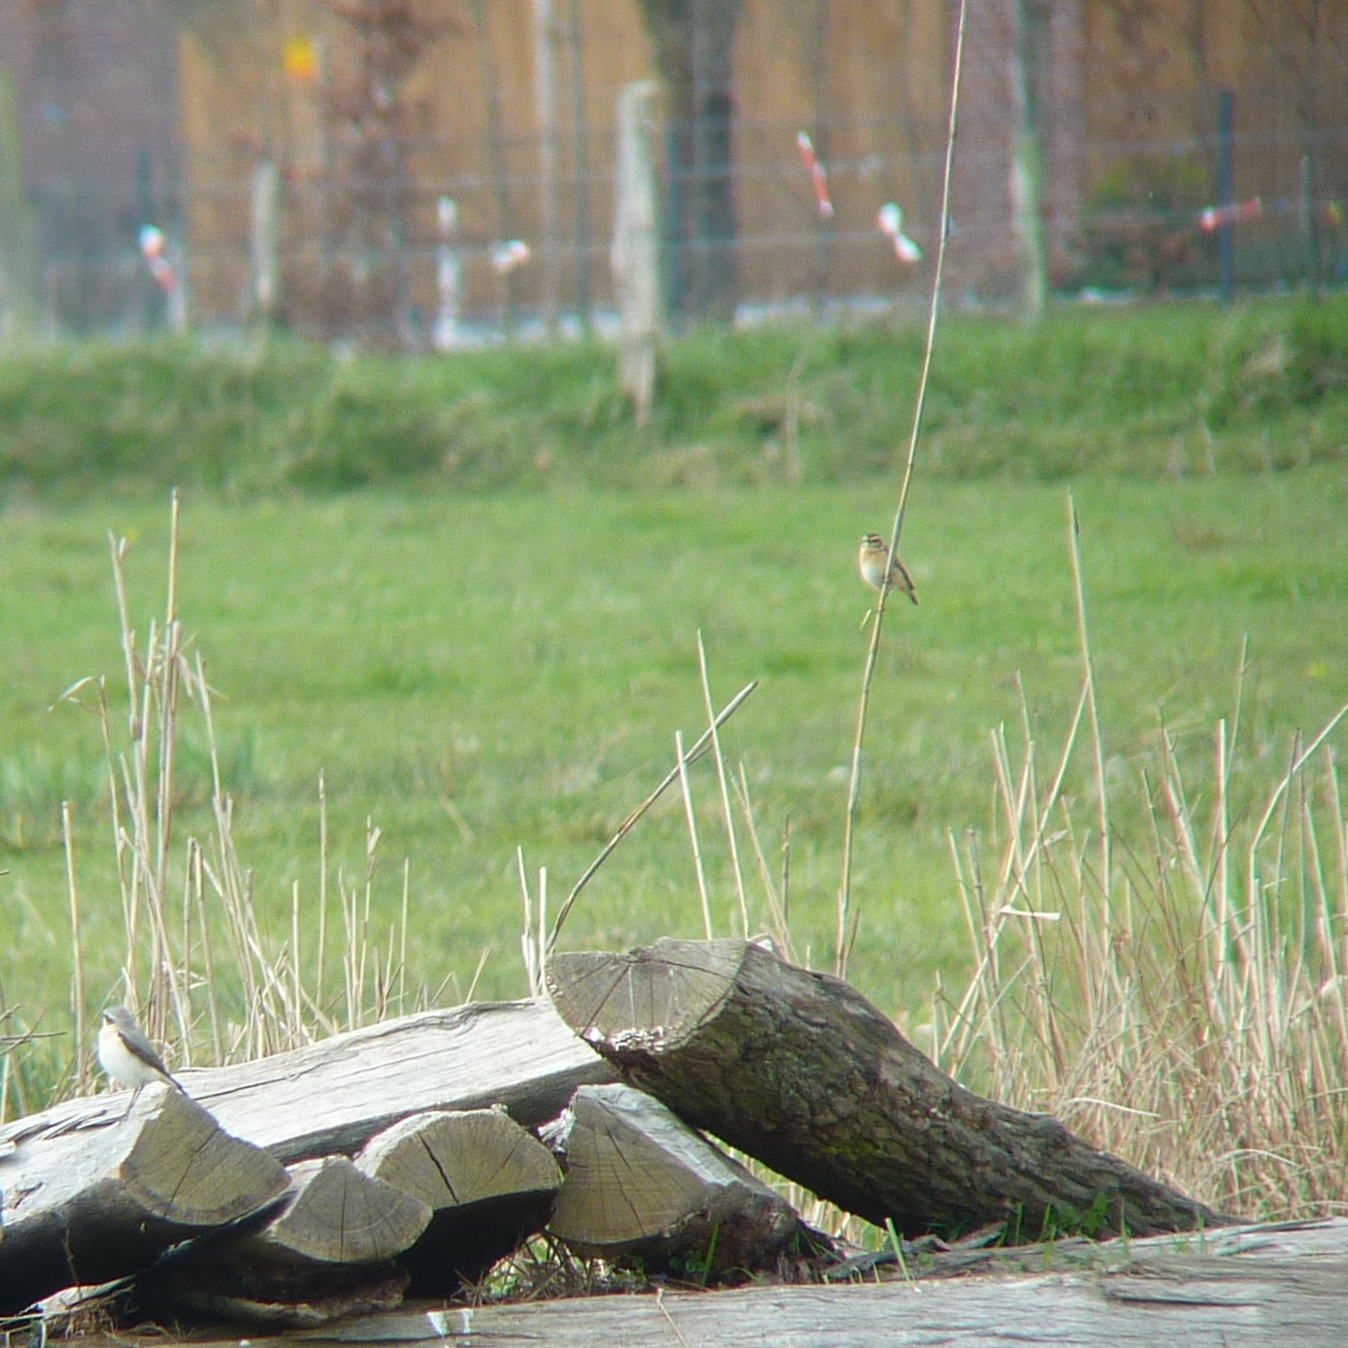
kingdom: Animalia
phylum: Chordata
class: Aves
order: Passeriformes
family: Muscicapidae
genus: Saxicola
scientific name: Saxicola rubetra
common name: Whinchat
